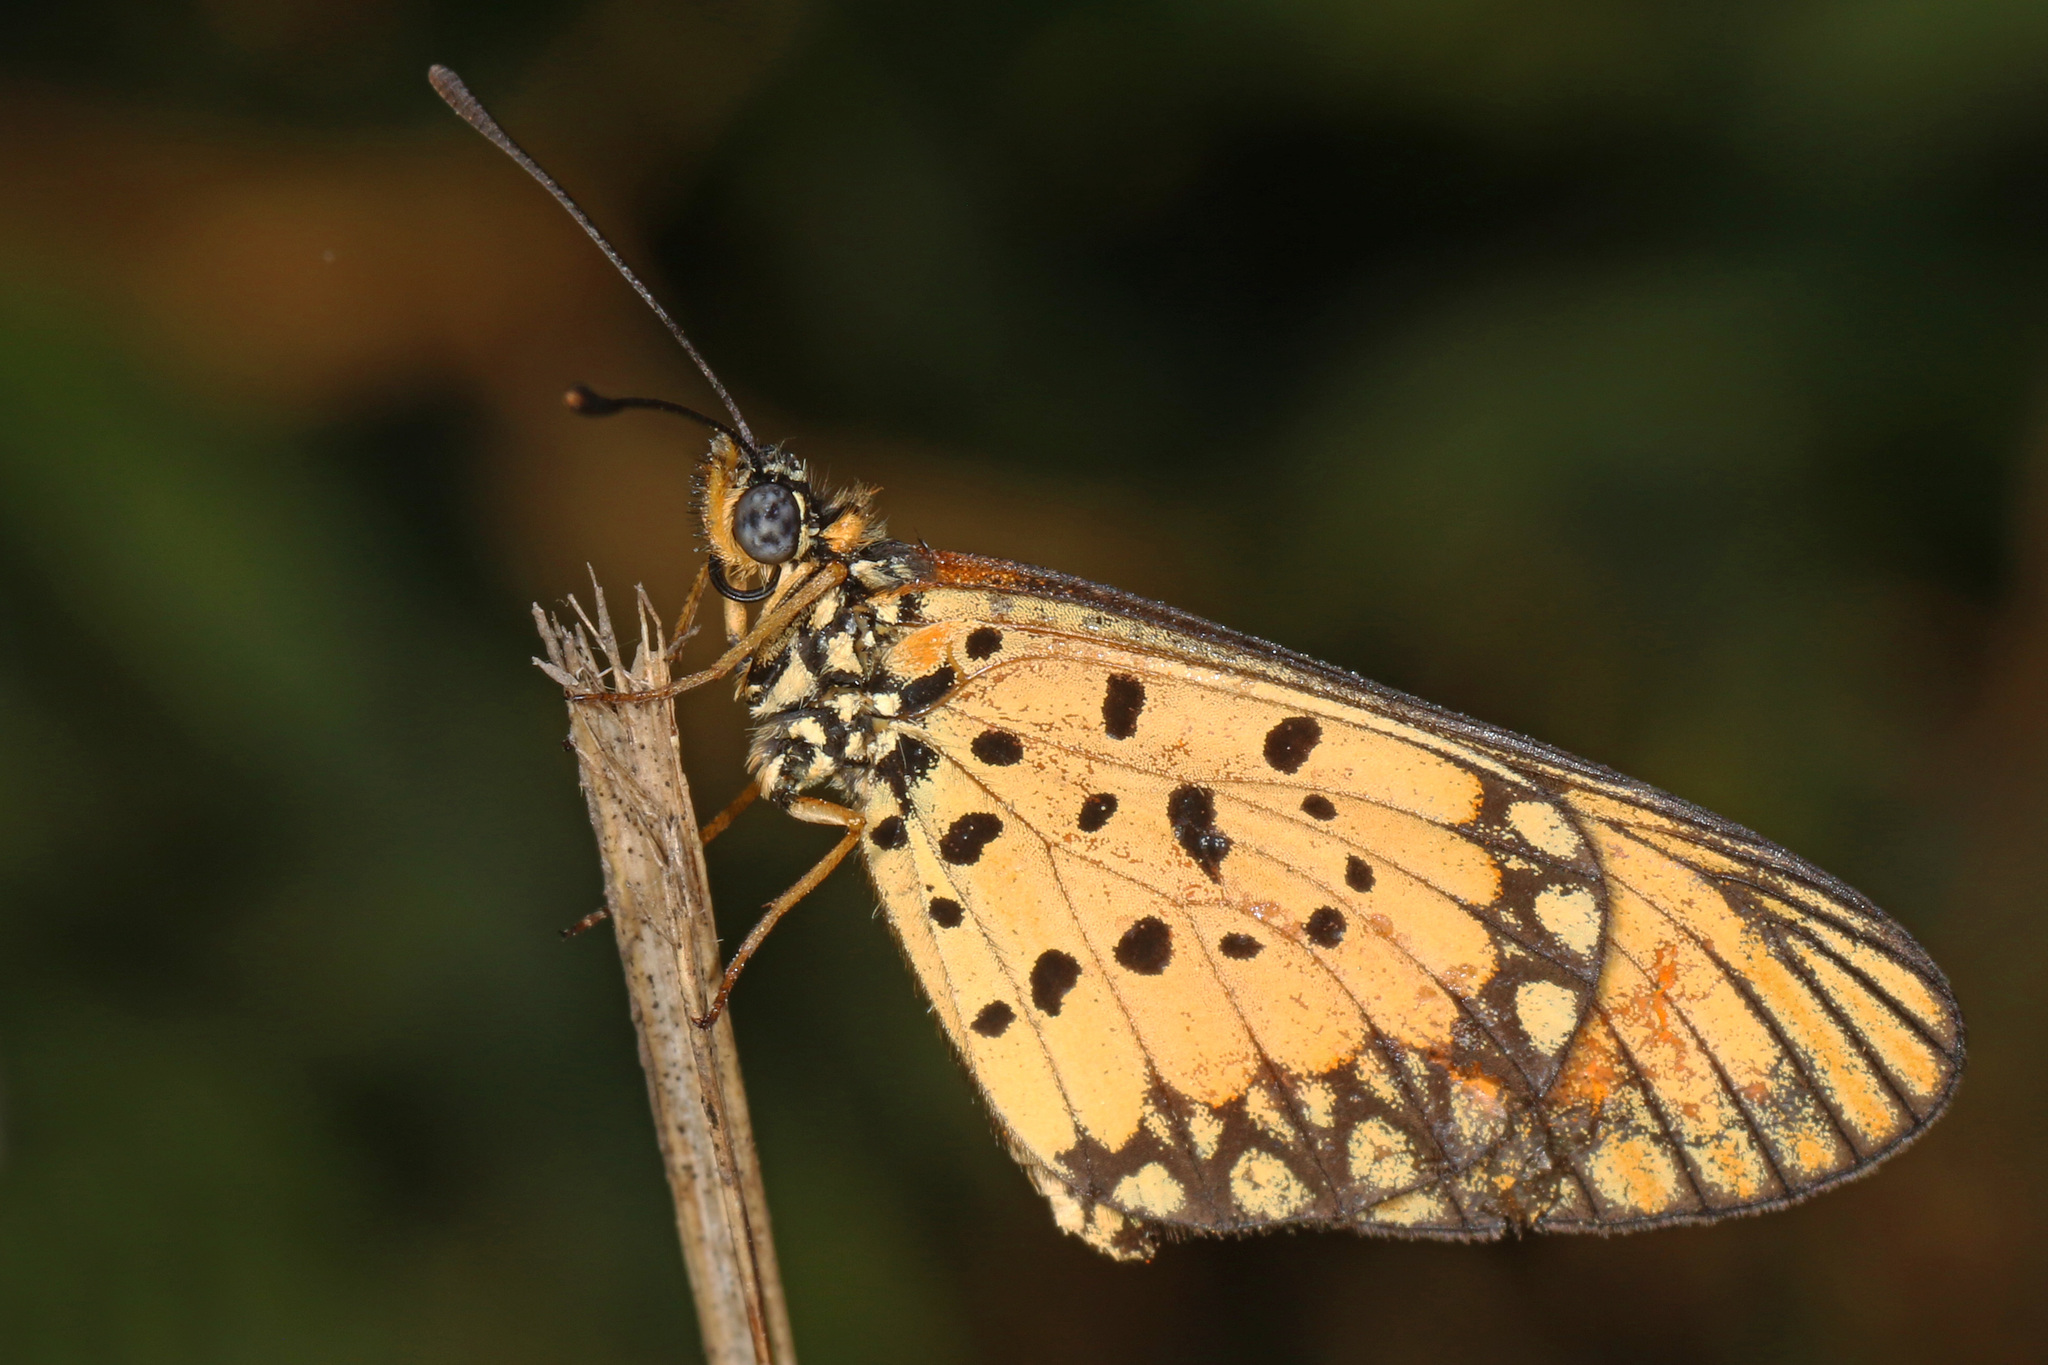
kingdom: Animalia
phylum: Arthropoda
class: Insecta
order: Lepidoptera
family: Nymphalidae
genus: Acraea
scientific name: Acraea Telchinia serena
